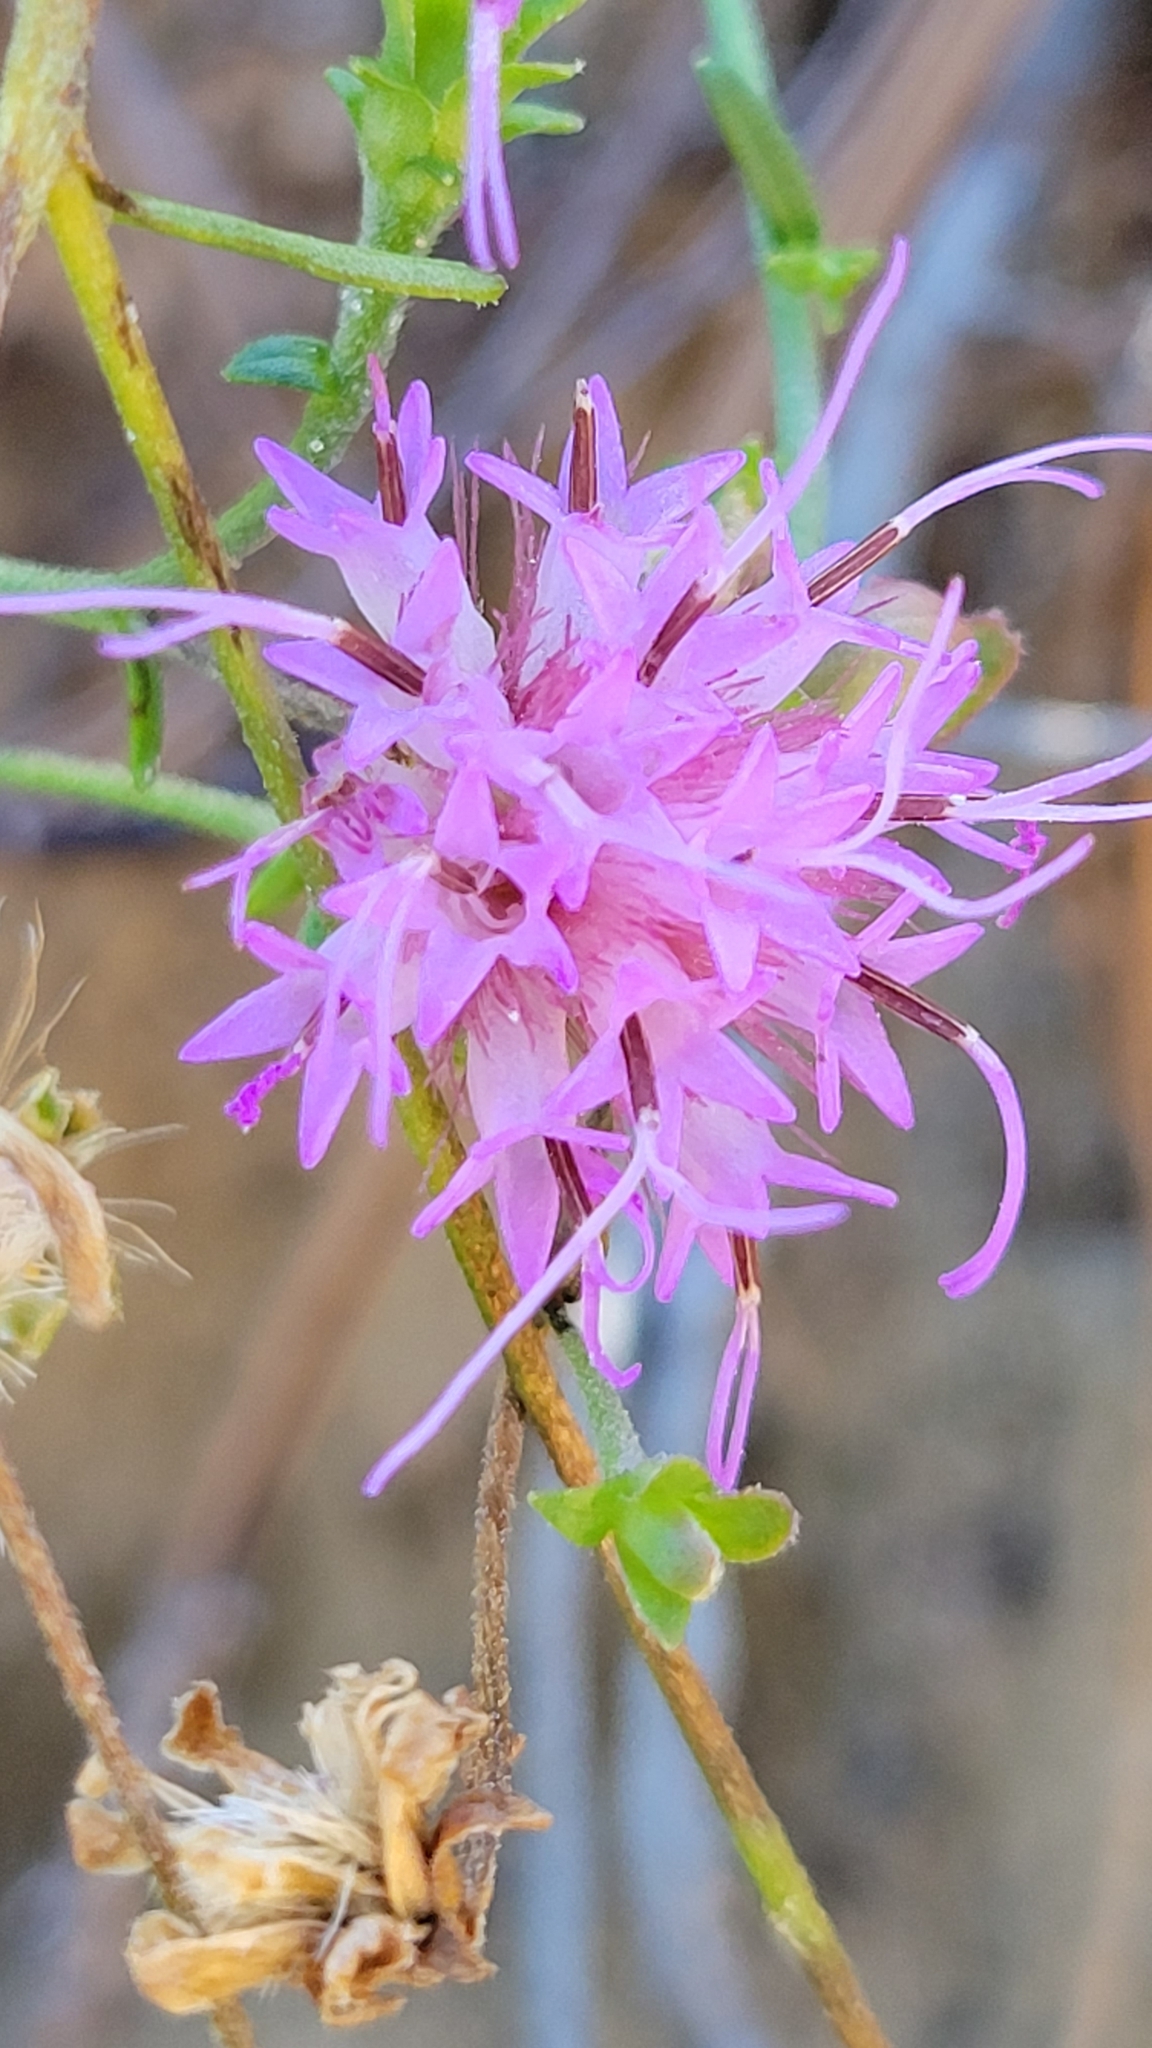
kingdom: Plantae
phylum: Tracheophyta
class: Magnoliopsida
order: Asterales
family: Asteraceae
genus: Carphephorus
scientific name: Carphephorus bellidifolius
